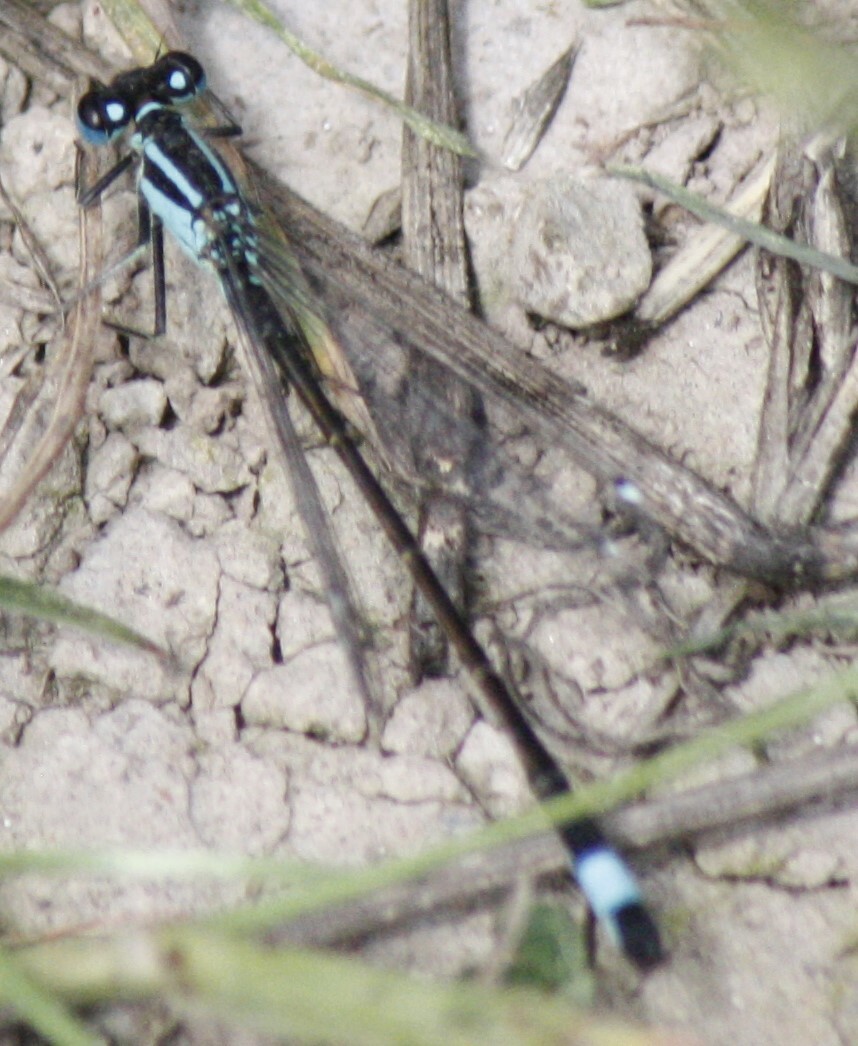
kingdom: Animalia
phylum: Arthropoda
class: Insecta
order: Odonata
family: Coenagrionidae
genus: Ischnura
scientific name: Ischnura elegans
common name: Blue-tailed damselfly
